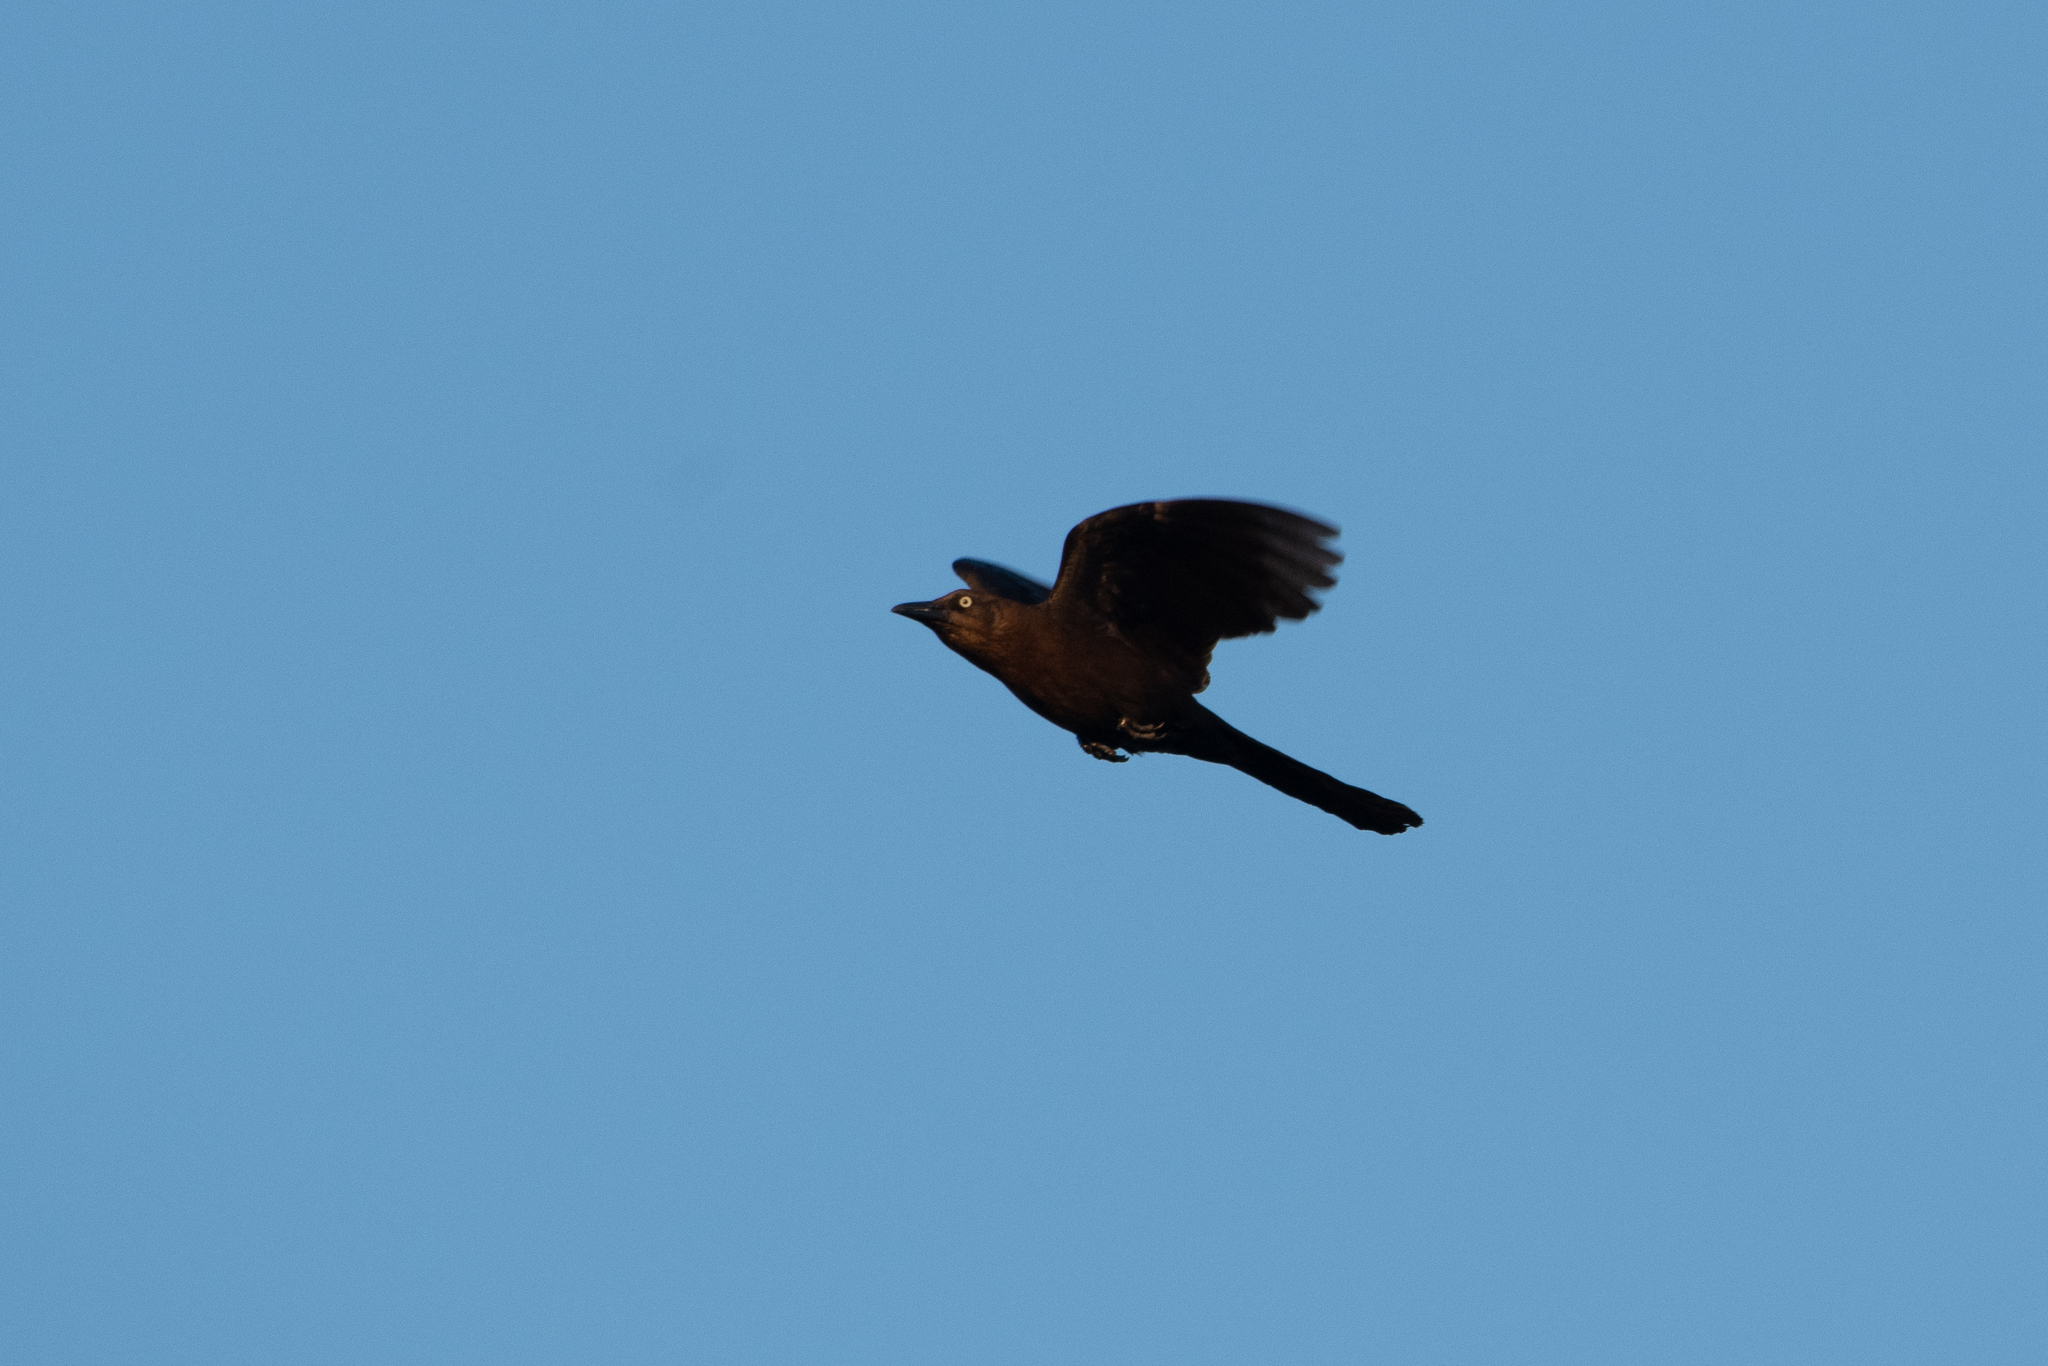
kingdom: Animalia
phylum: Chordata
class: Aves
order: Passeriformes
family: Icteridae
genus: Quiscalus
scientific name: Quiscalus mexicanus
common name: Great-tailed grackle
